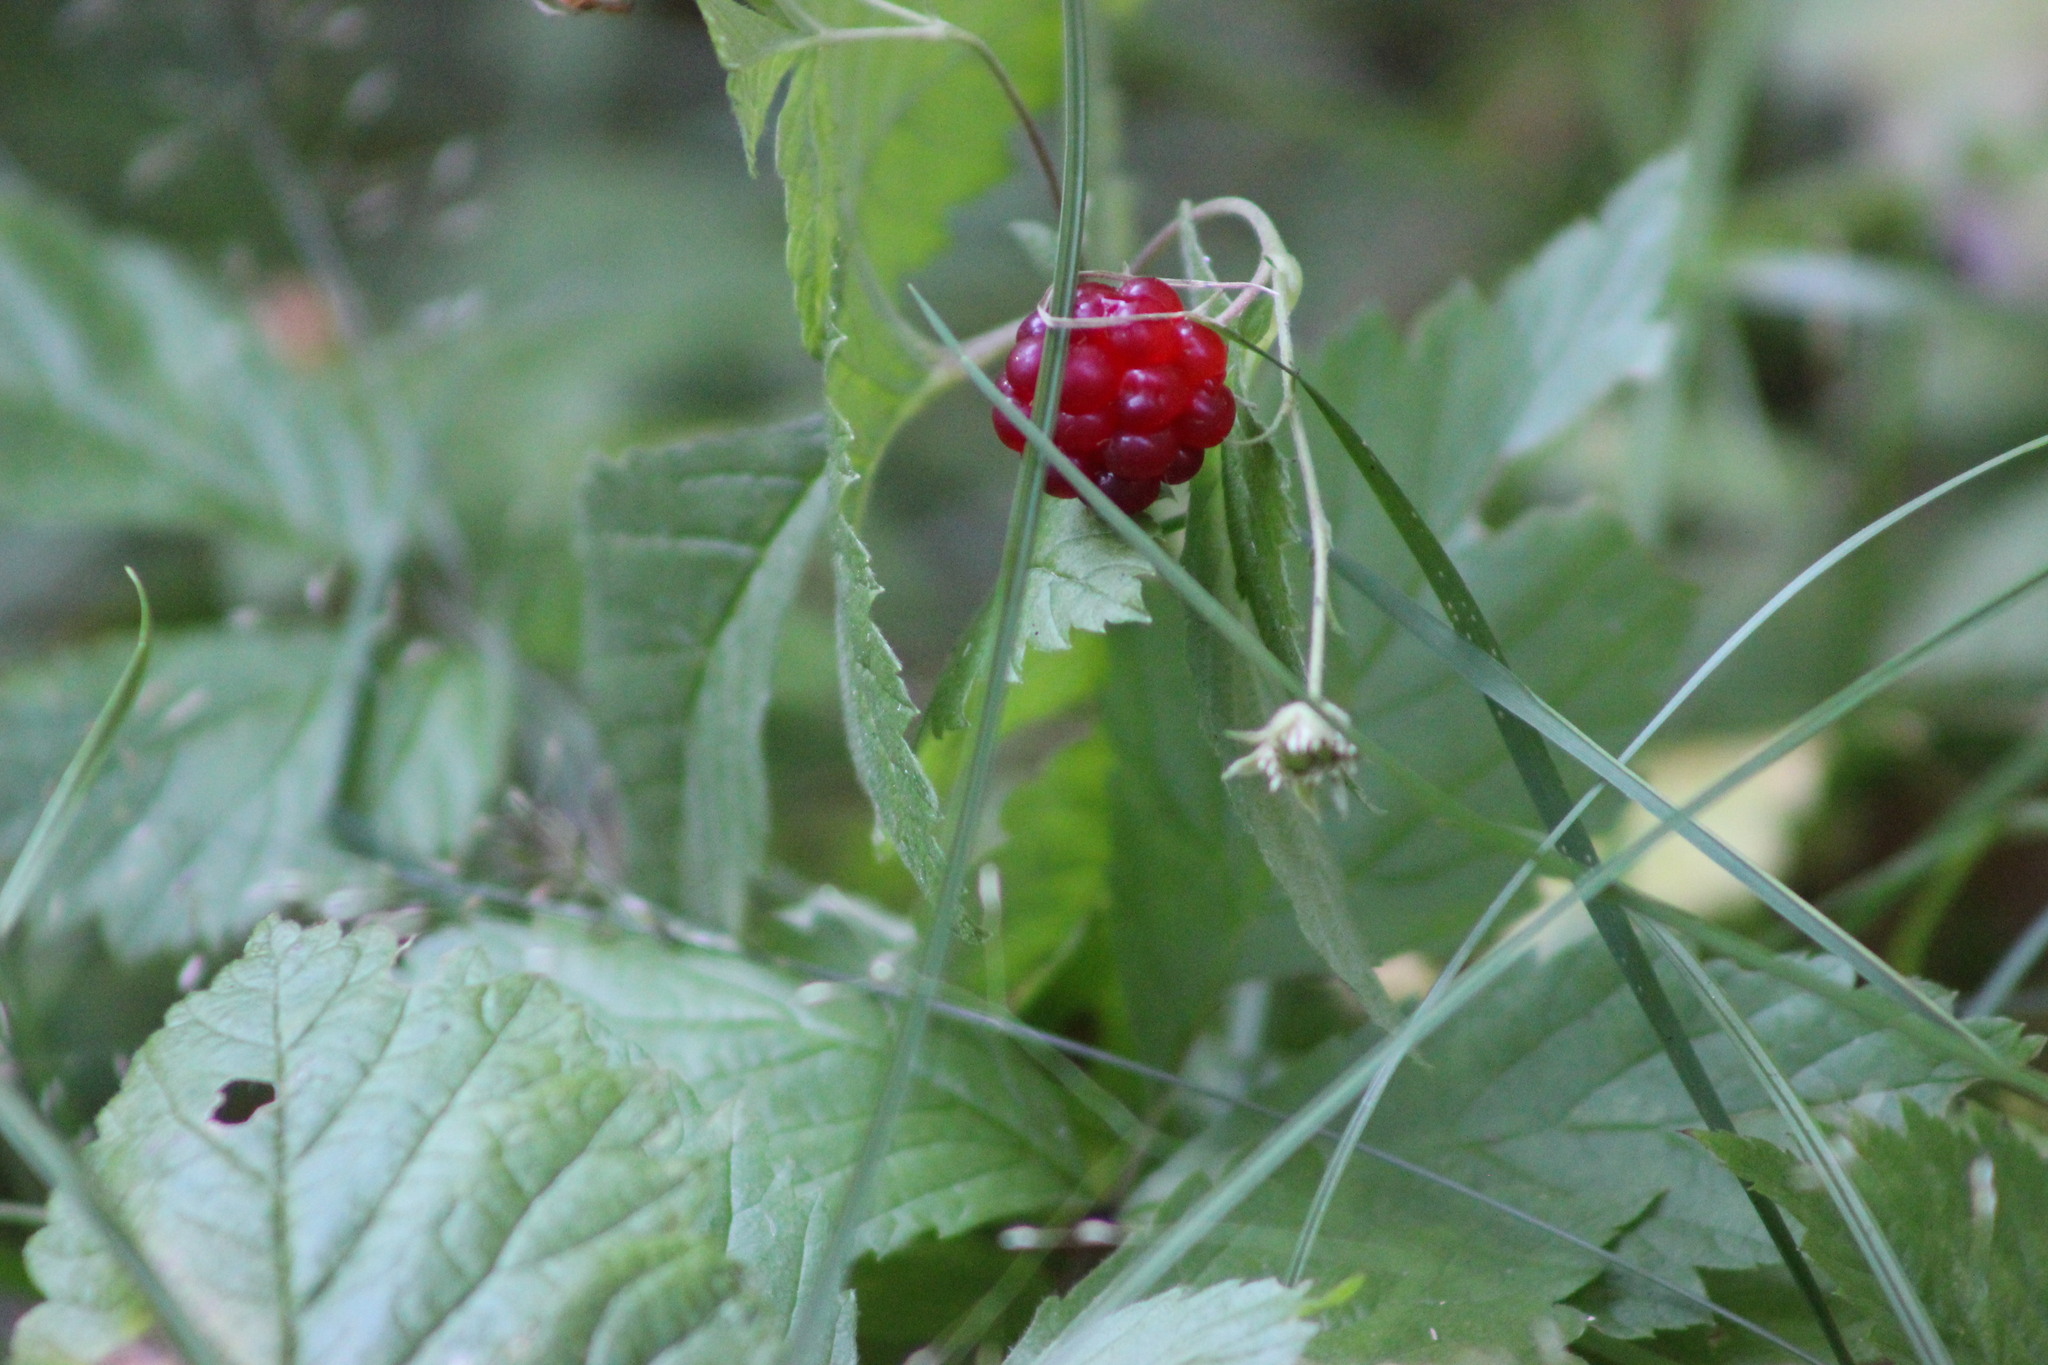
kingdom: Plantae
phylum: Tracheophyta
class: Magnoliopsida
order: Rosales
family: Rosaceae
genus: Rubus
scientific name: Rubus arcticus
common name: Arctic bramble
